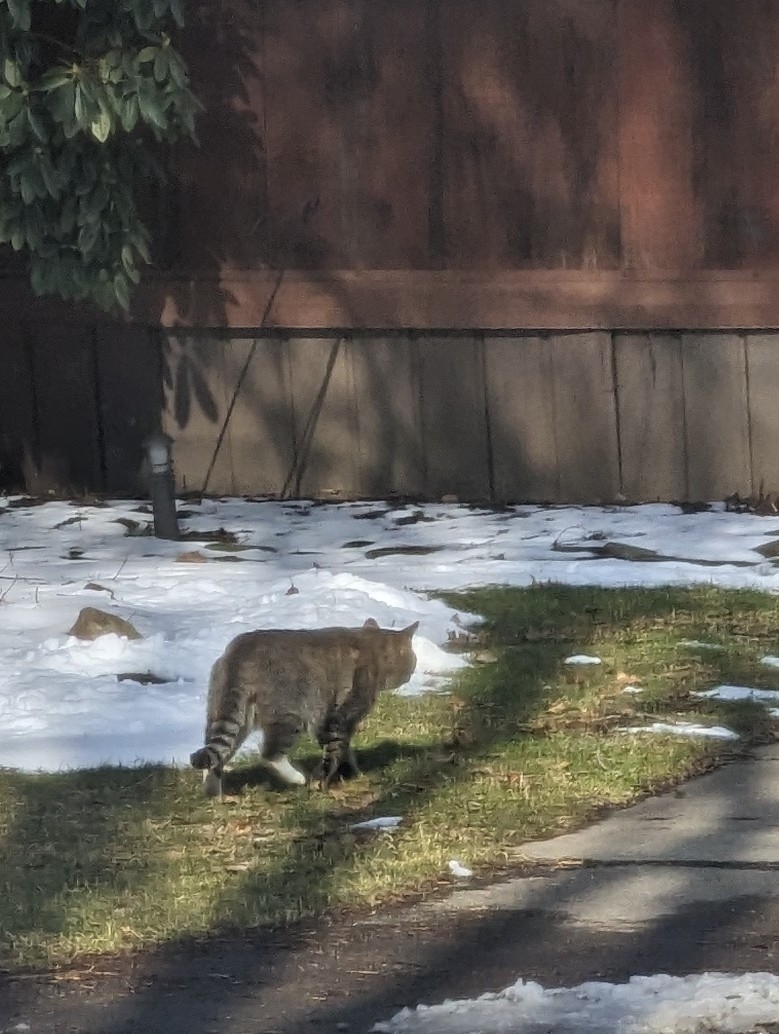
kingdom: Animalia
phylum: Chordata
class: Mammalia
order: Carnivora
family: Felidae
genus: Felis
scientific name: Felis catus
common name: Domestic cat
